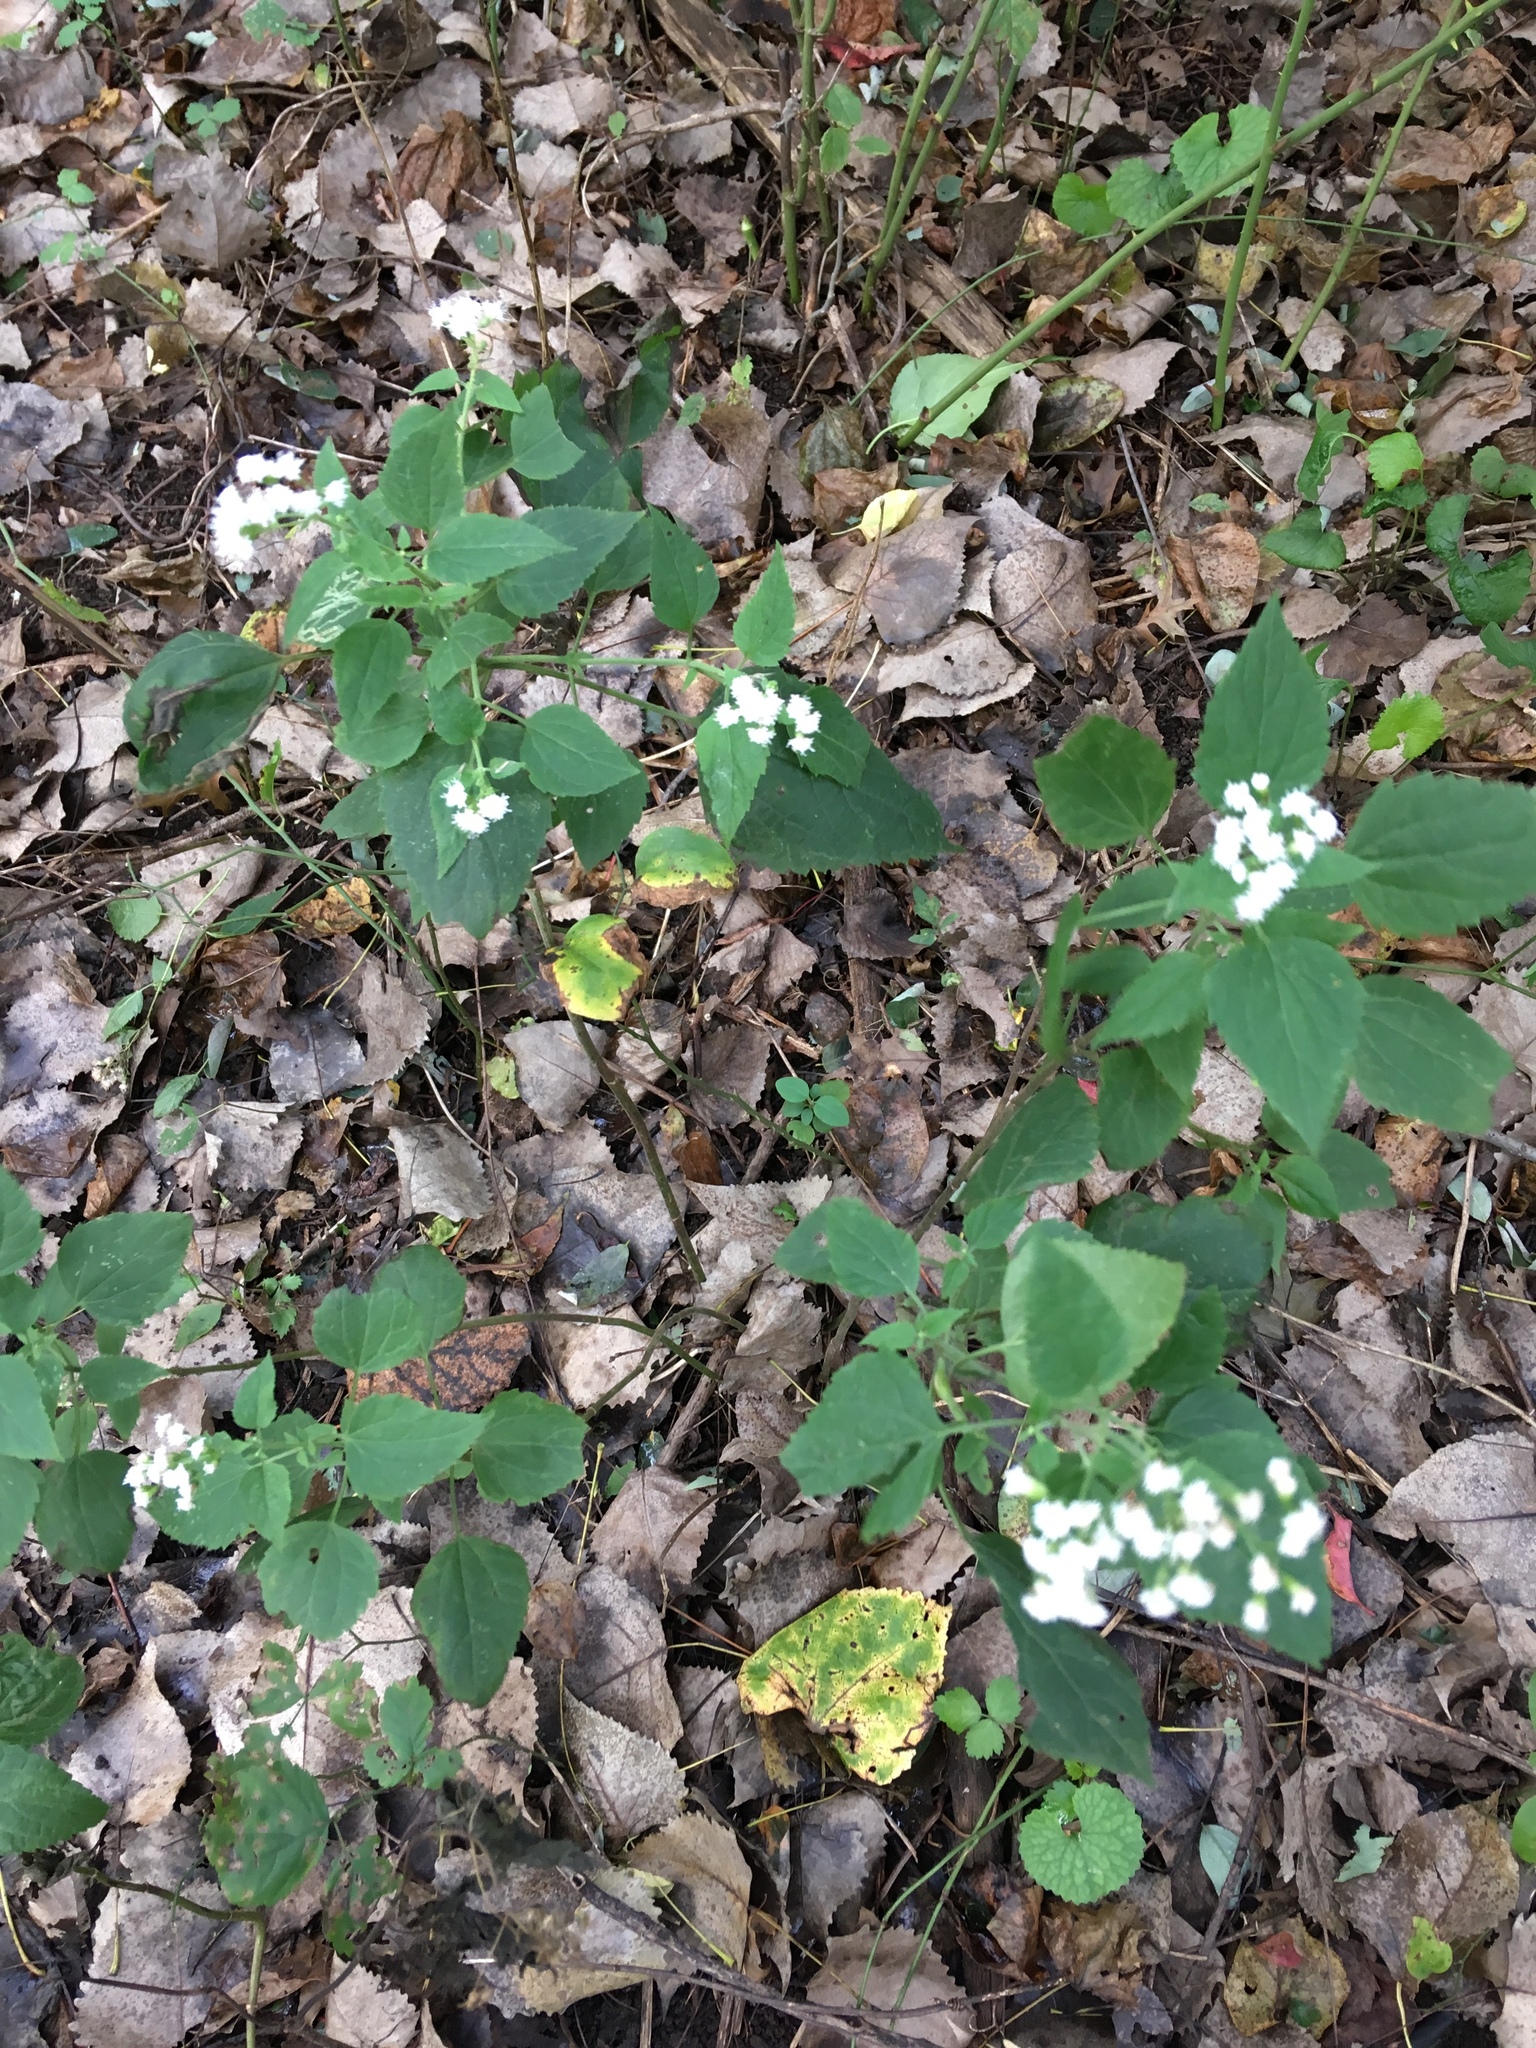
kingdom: Plantae
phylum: Tracheophyta
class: Magnoliopsida
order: Asterales
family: Asteraceae
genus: Ageratina
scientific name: Ageratina altissima
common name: White snakeroot
